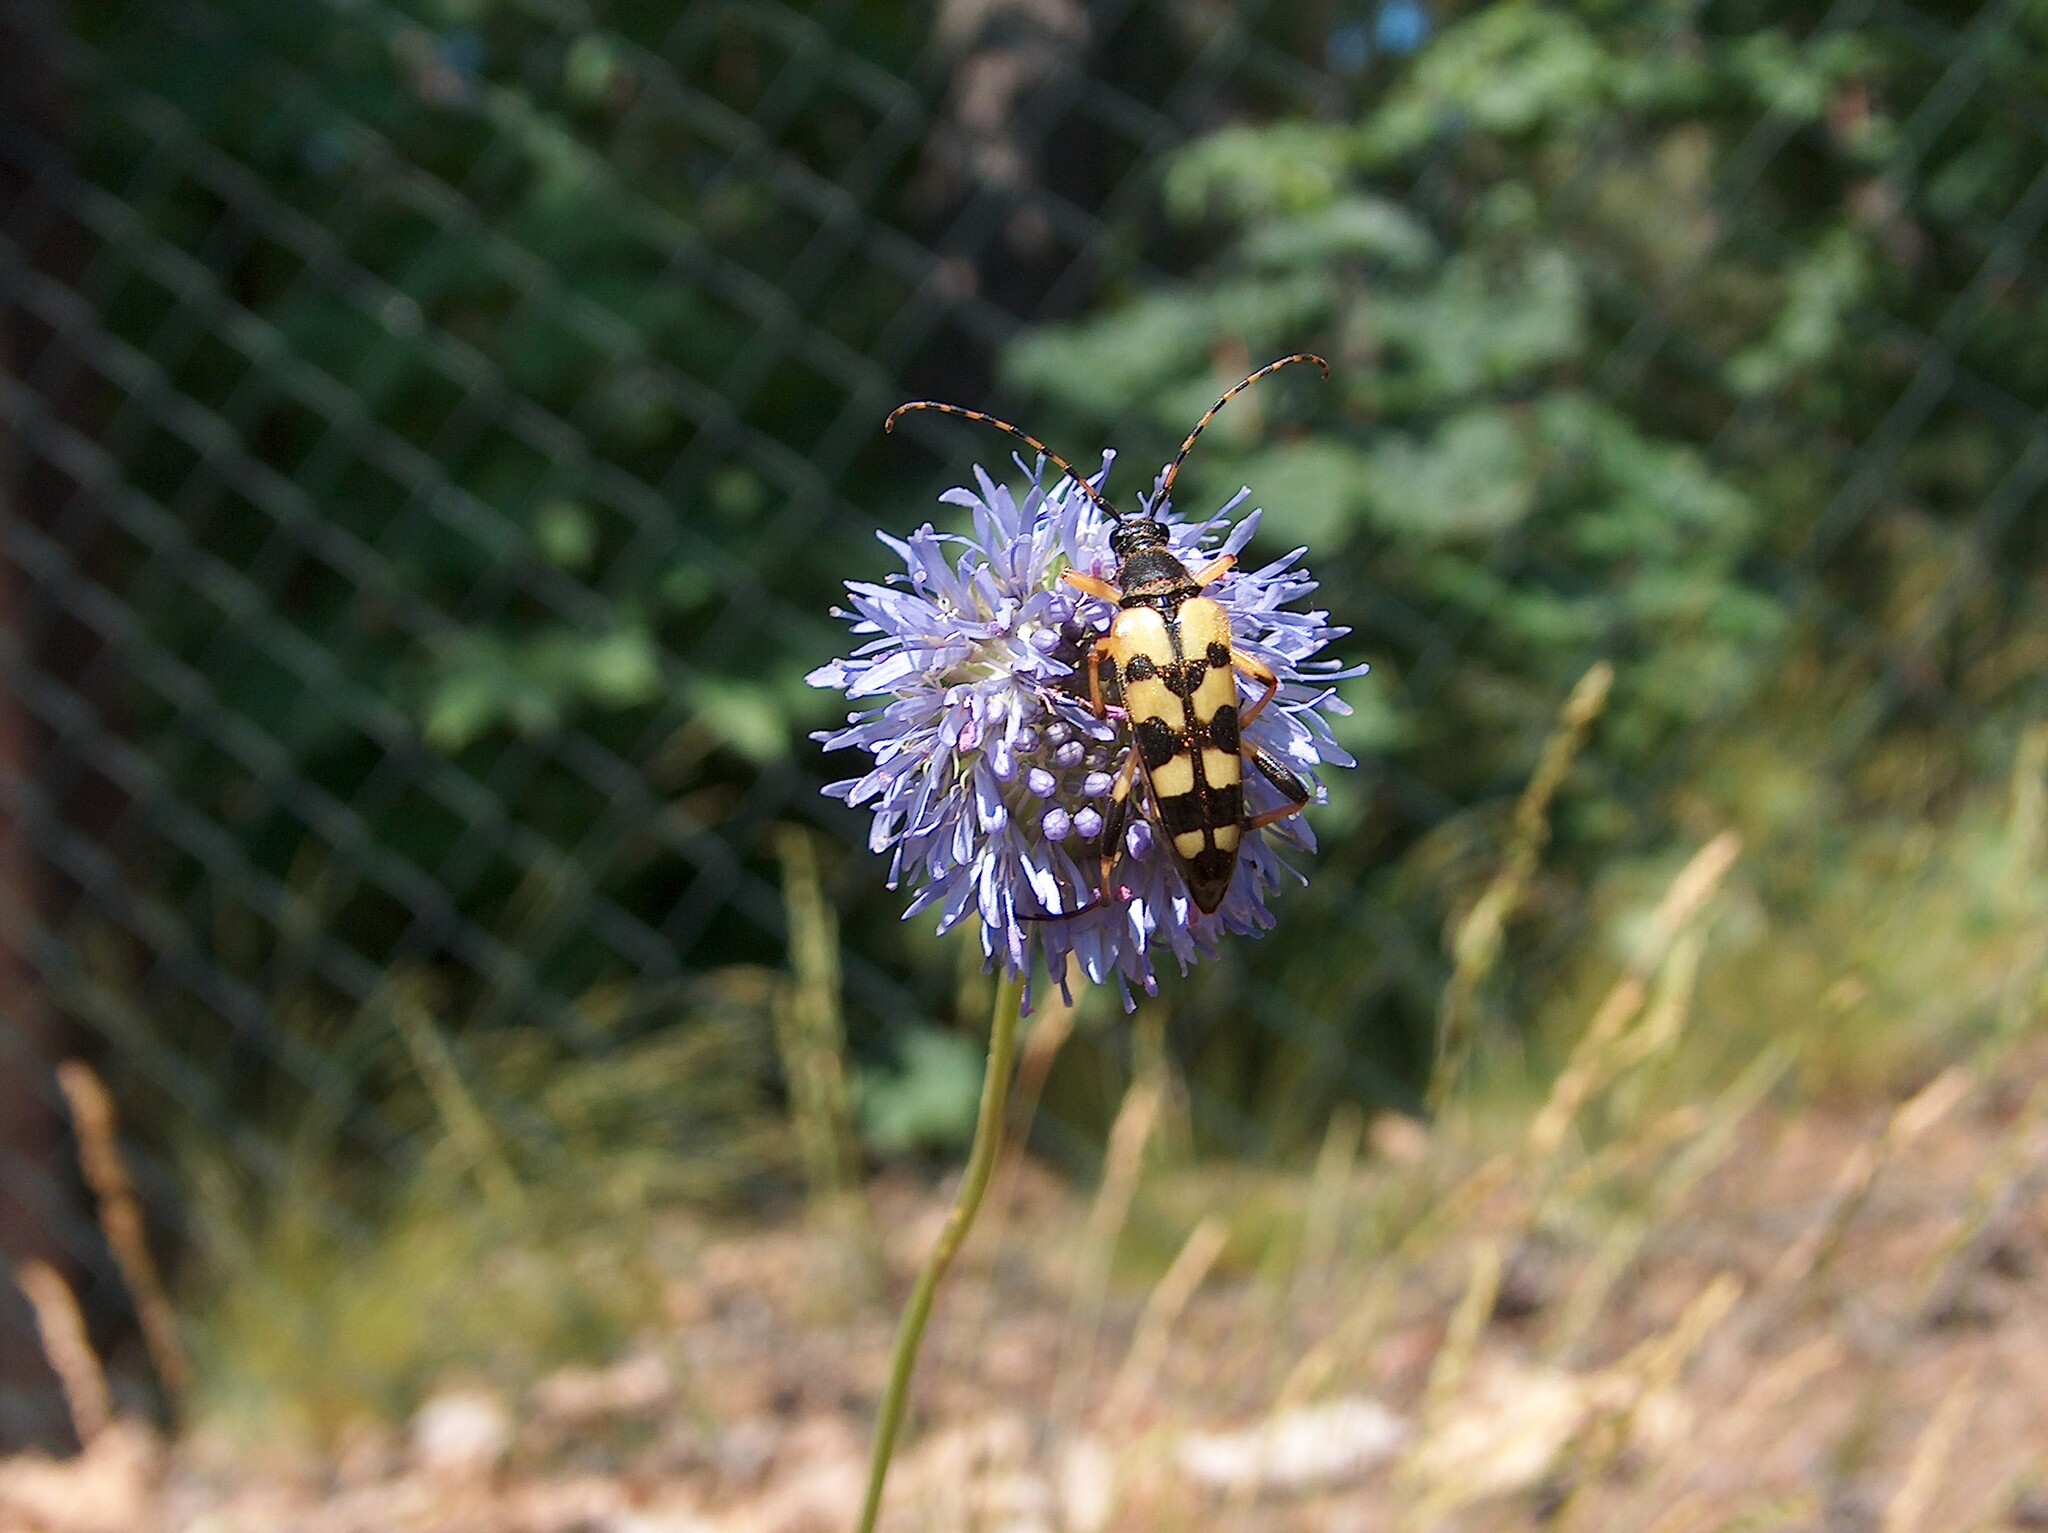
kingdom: Animalia
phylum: Arthropoda
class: Insecta
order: Coleoptera
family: Cerambycidae
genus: Rutpela
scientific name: Rutpela maculata
